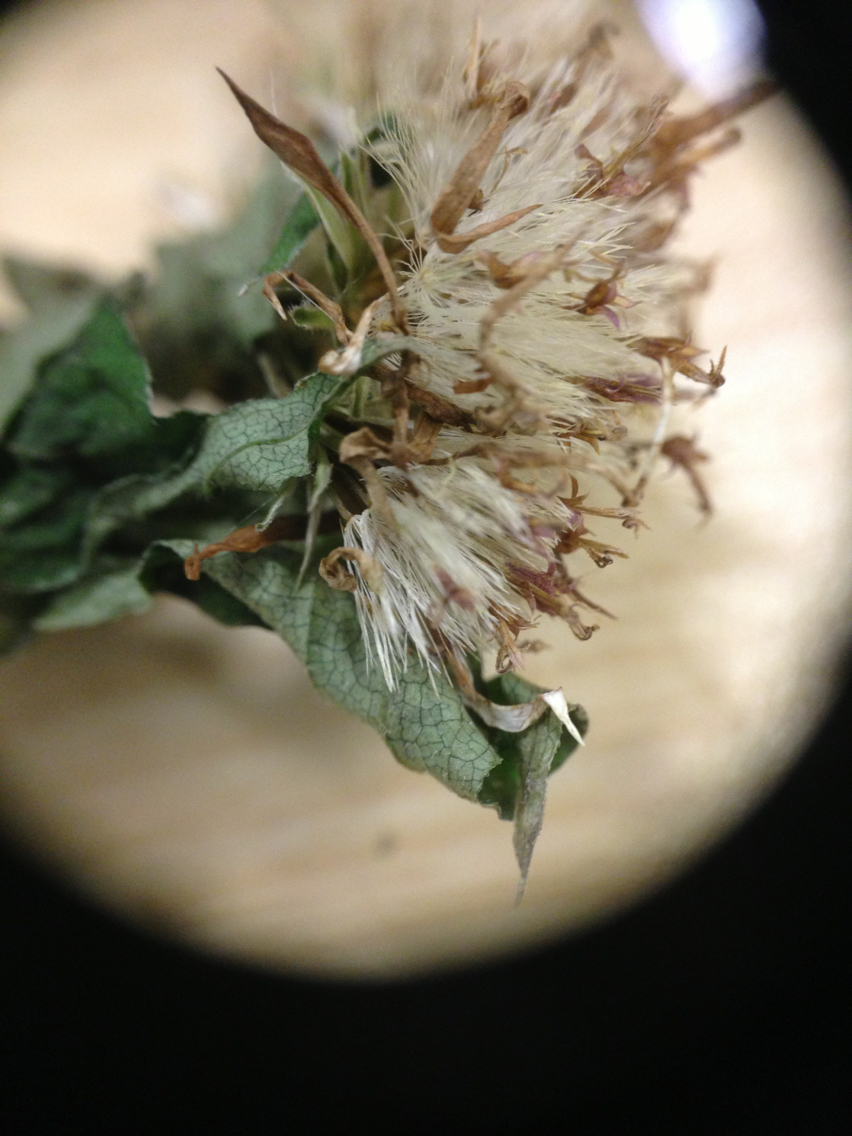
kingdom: Plantae
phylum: Tracheophyta
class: Magnoliopsida
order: Asterales
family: Asteraceae
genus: Eurybia
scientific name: Eurybia divaricata
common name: White wood aster
